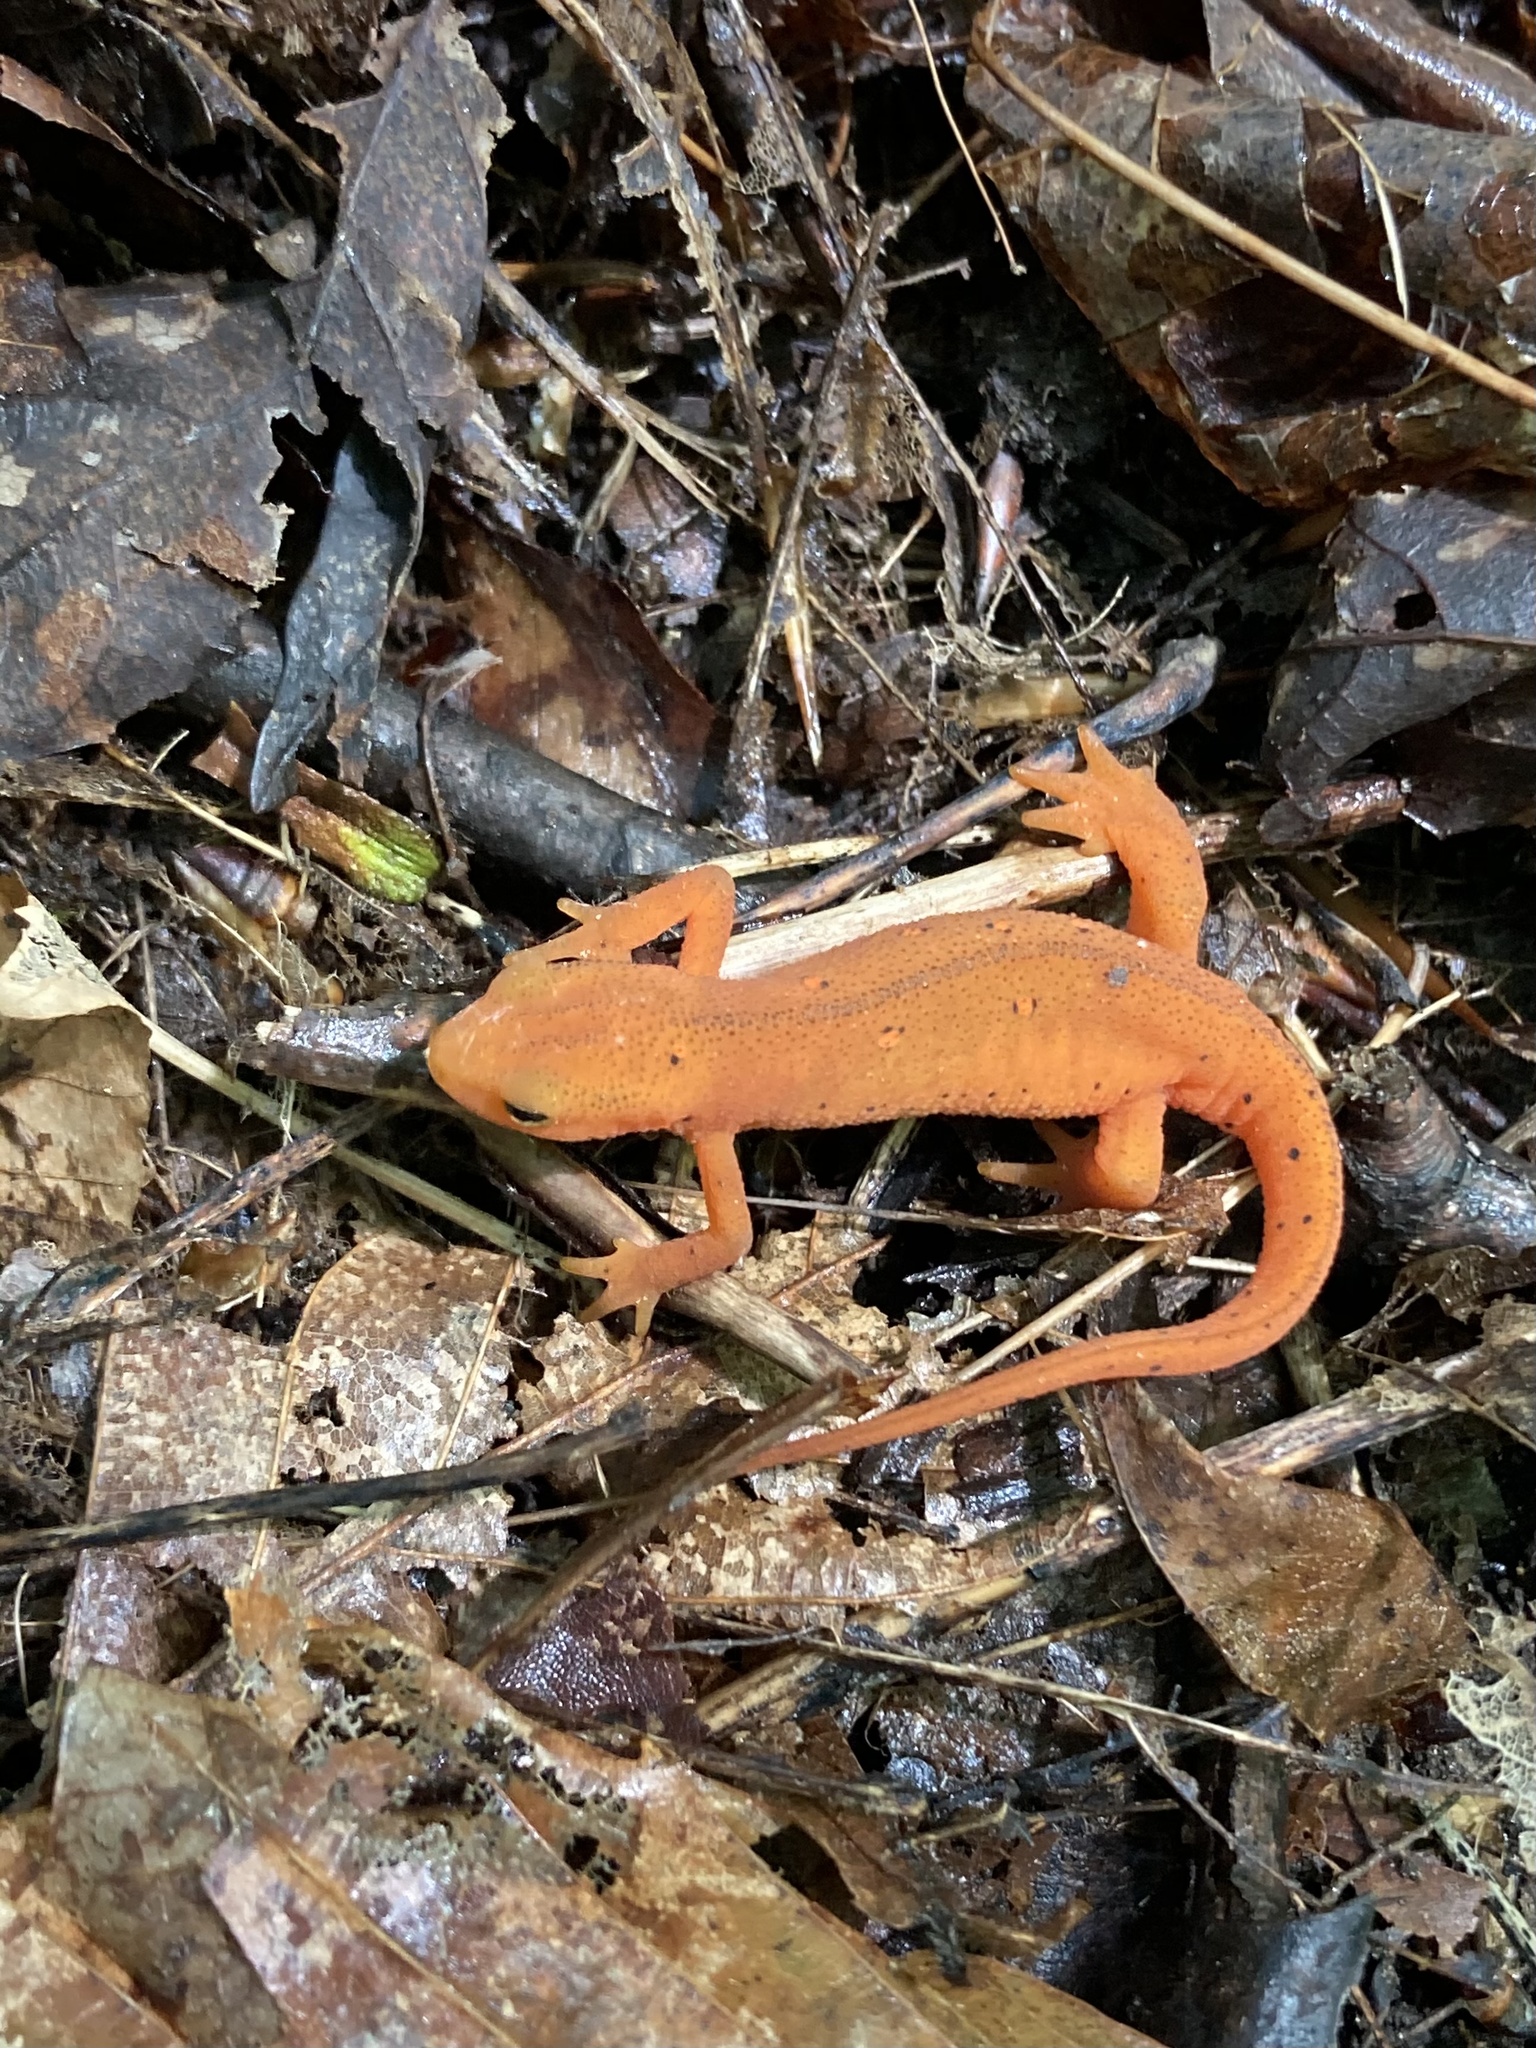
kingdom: Animalia
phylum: Chordata
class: Amphibia
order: Caudata
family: Salamandridae
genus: Notophthalmus
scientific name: Notophthalmus viridescens
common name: Eastern newt
